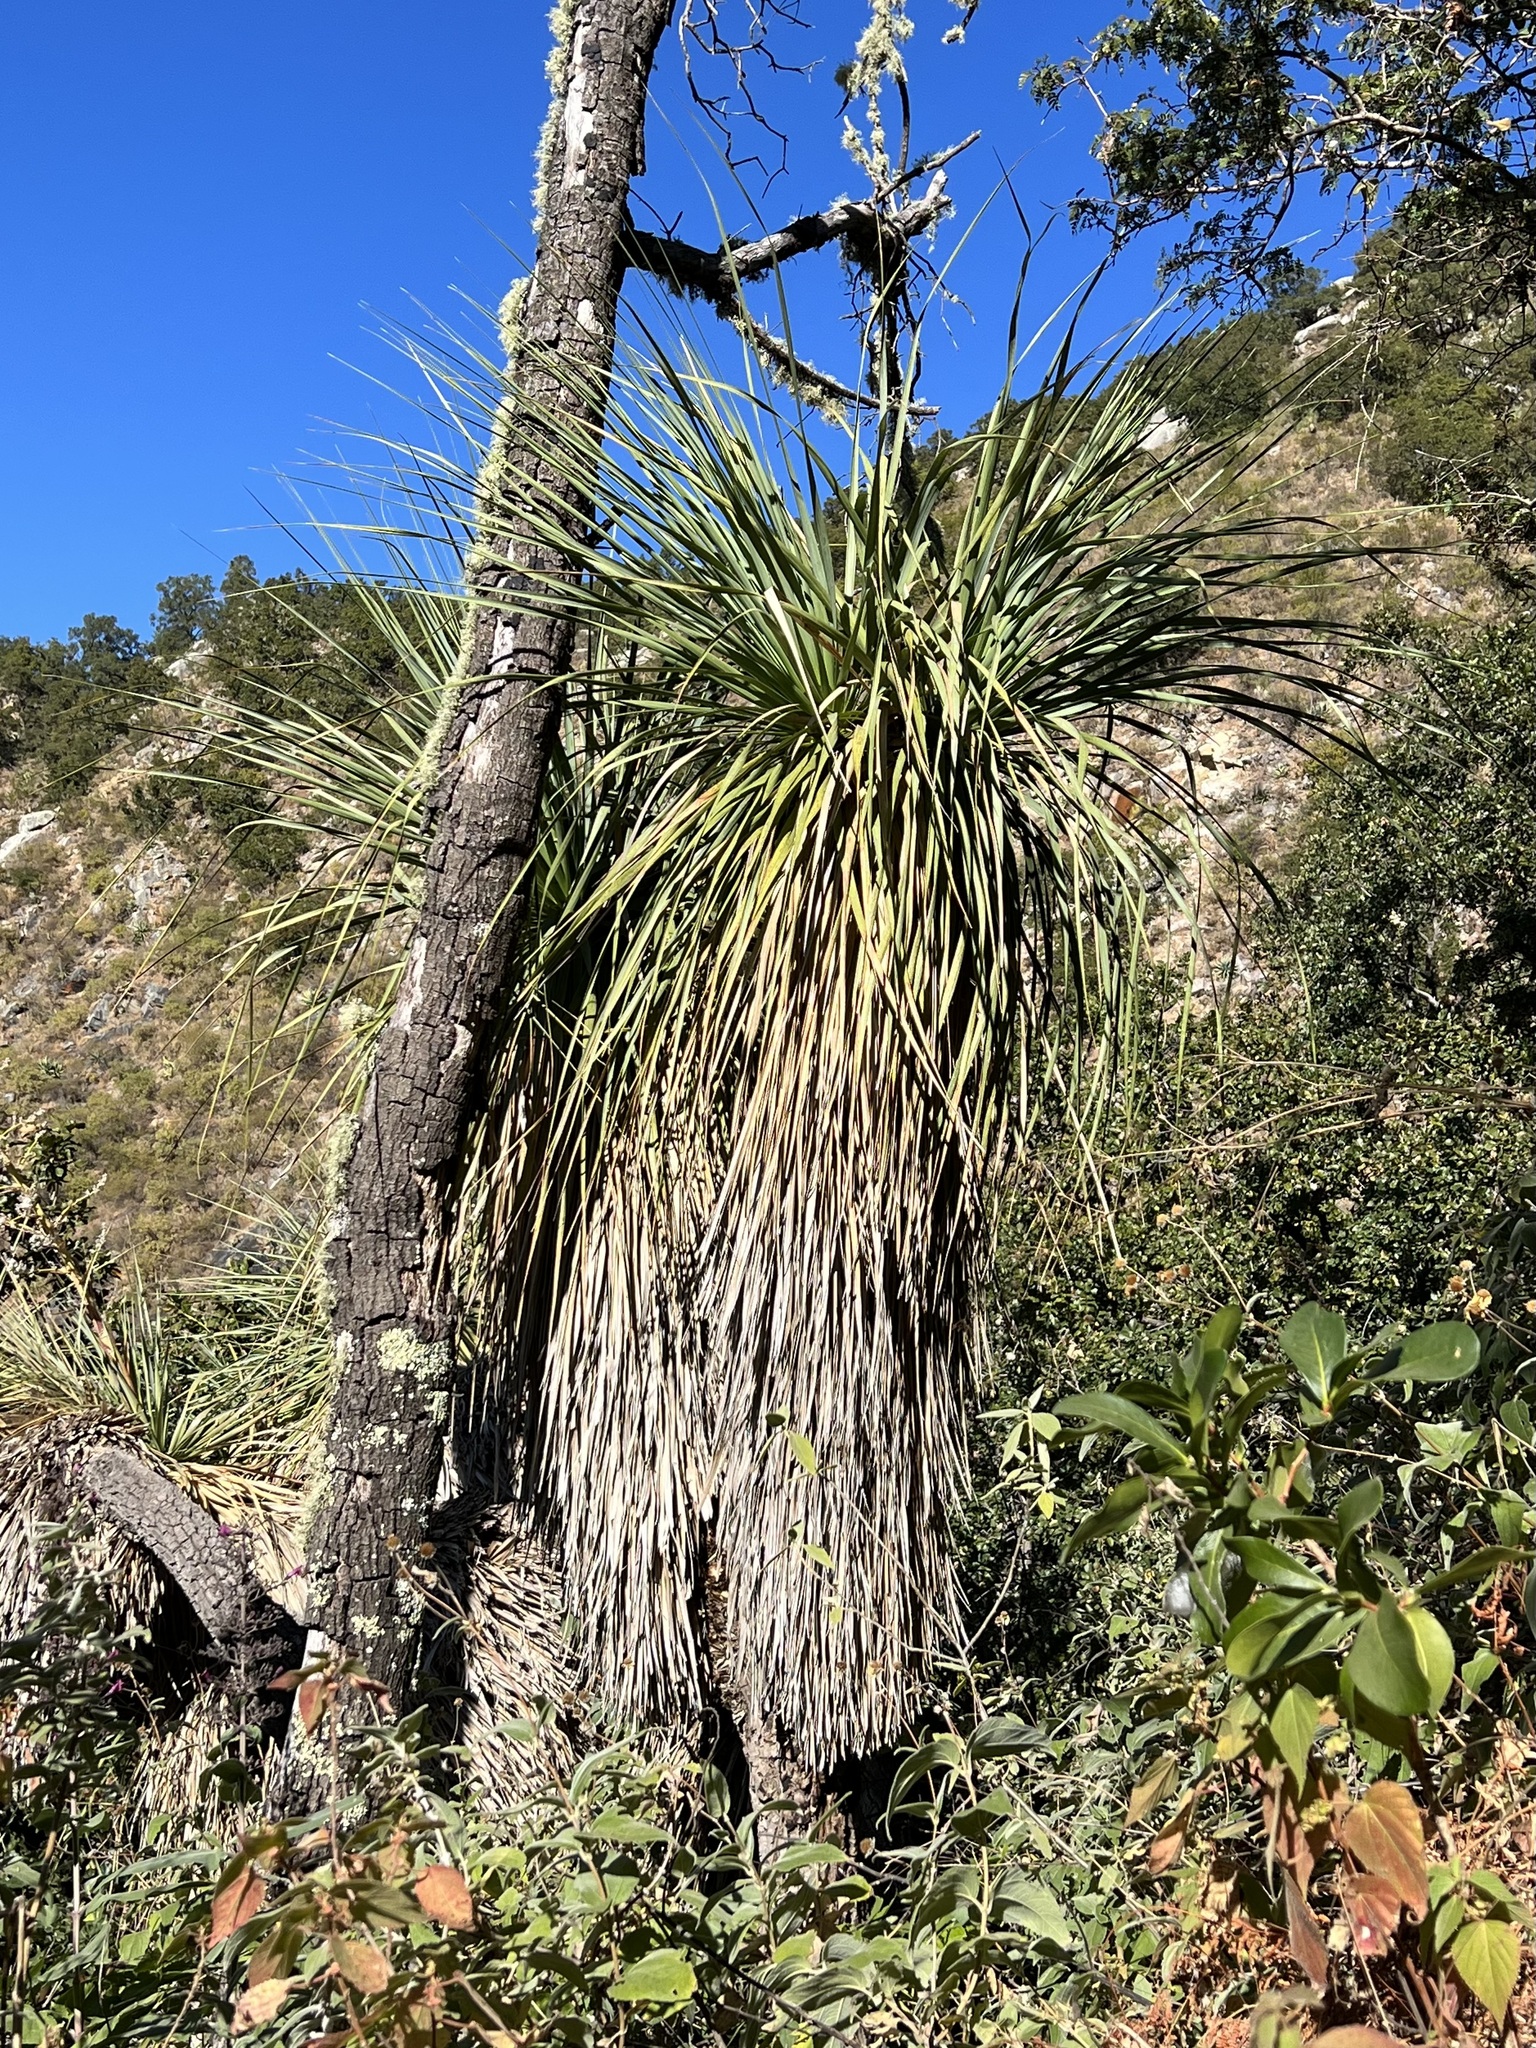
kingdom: Plantae
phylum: Tracheophyta
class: Liliopsida
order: Asparagales
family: Asparagaceae
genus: Nolina
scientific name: Nolina beldingii
